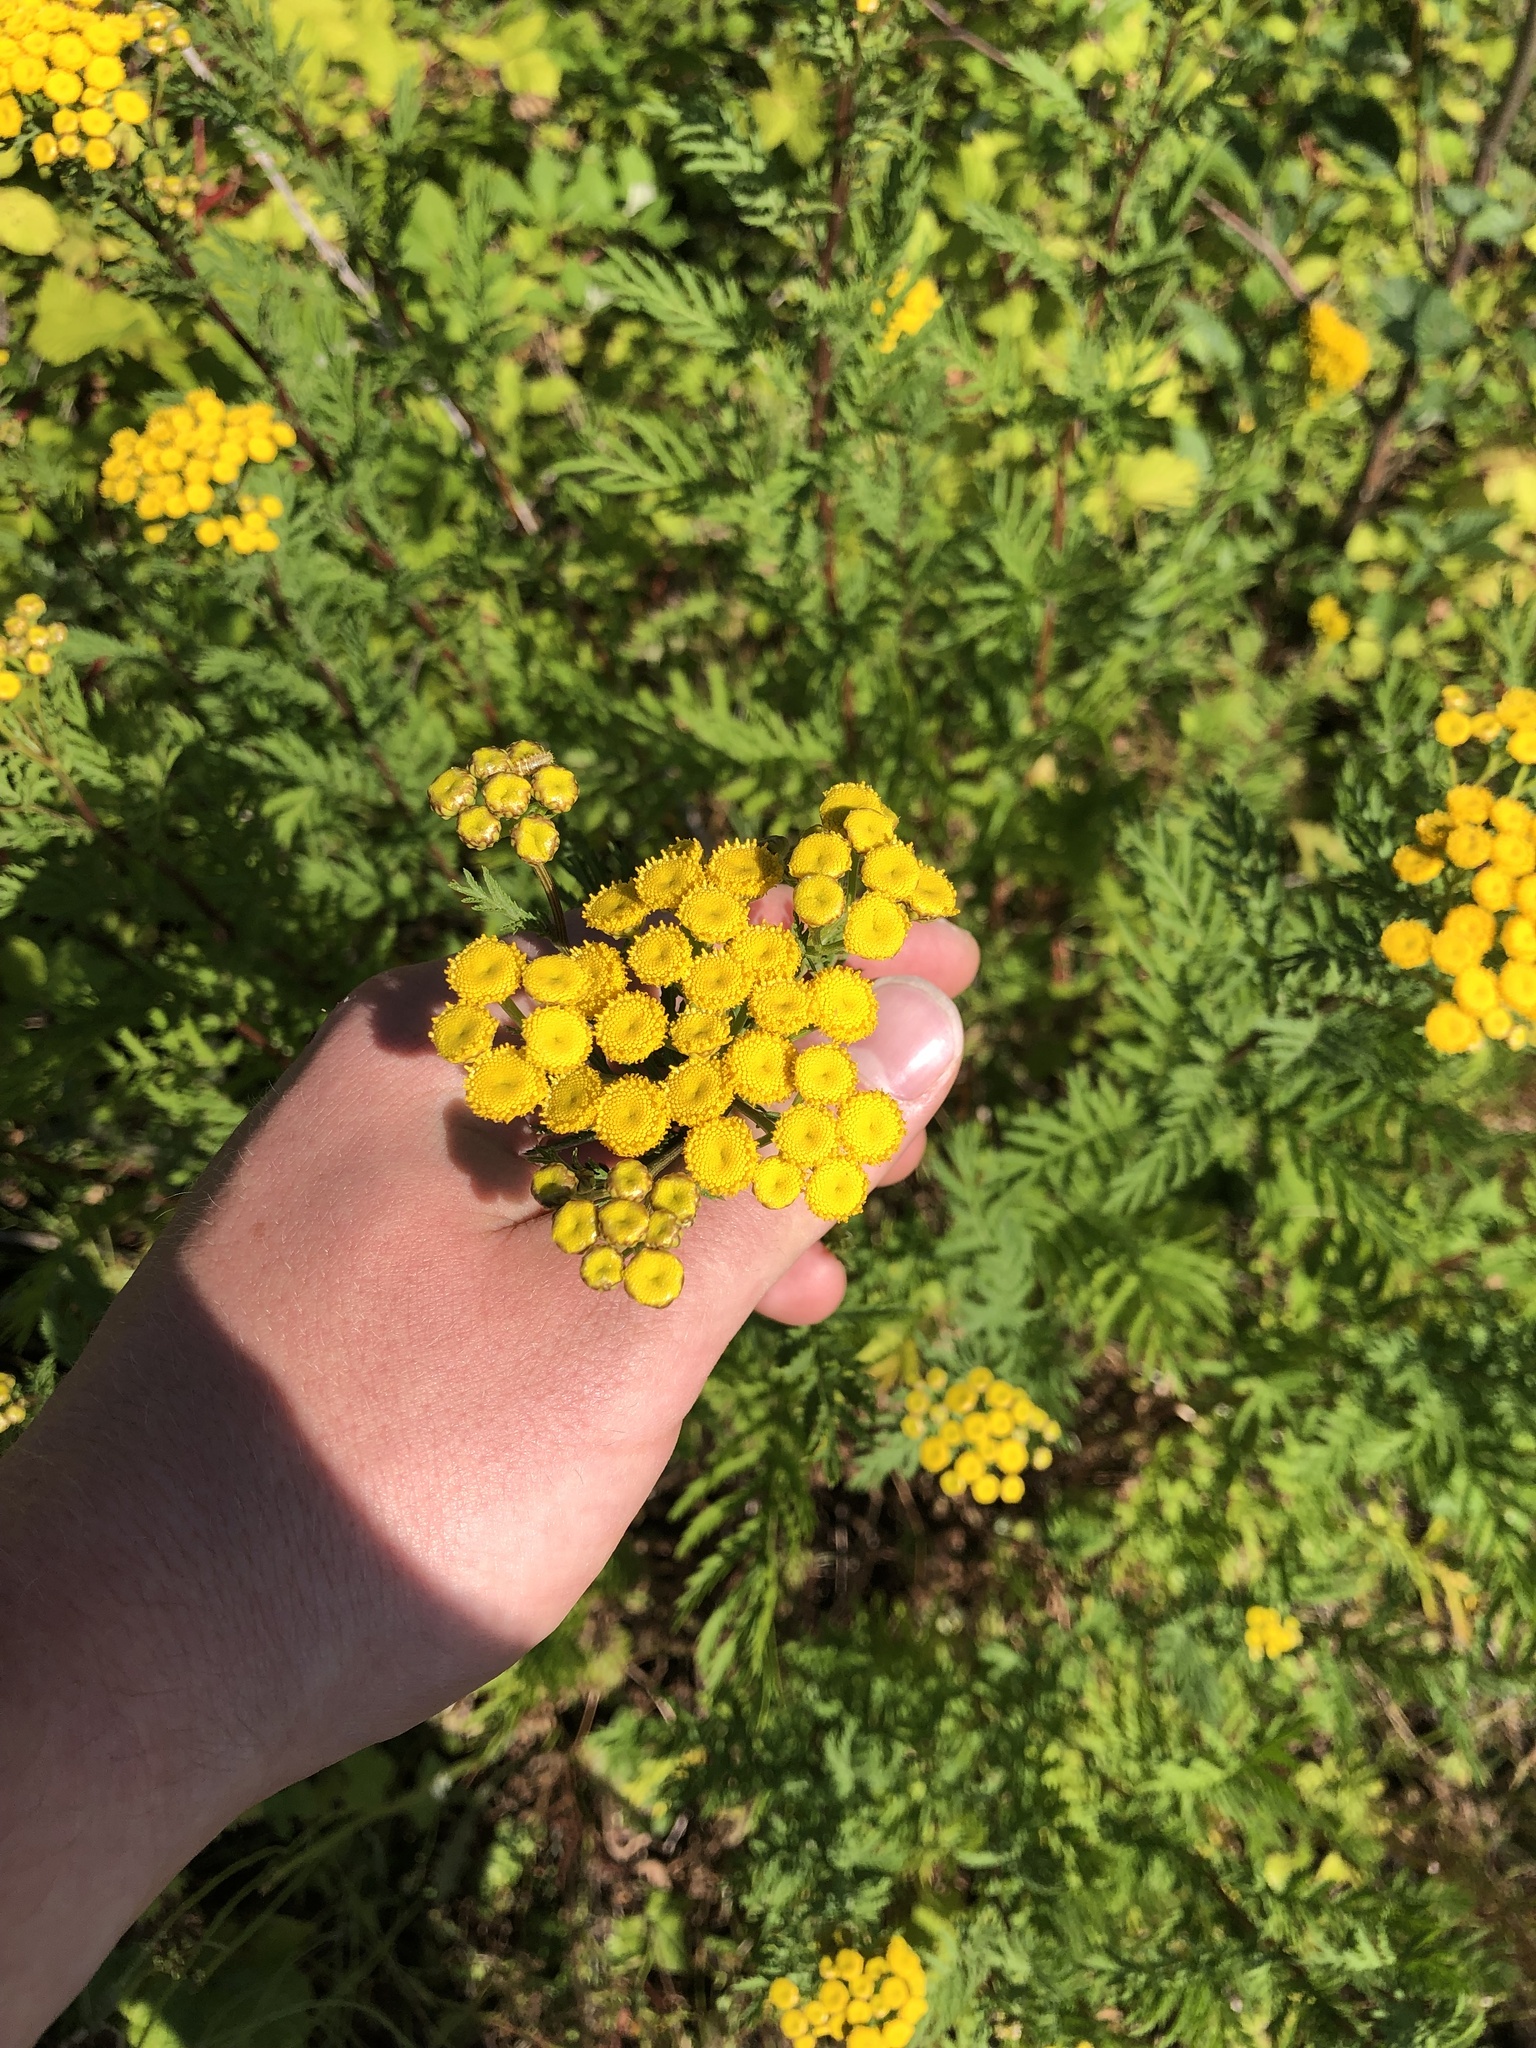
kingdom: Plantae
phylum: Tracheophyta
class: Magnoliopsida
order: Asterales
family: Asteraceae
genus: Tanacetum
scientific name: Tanacetum vulgare
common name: Common tansy
